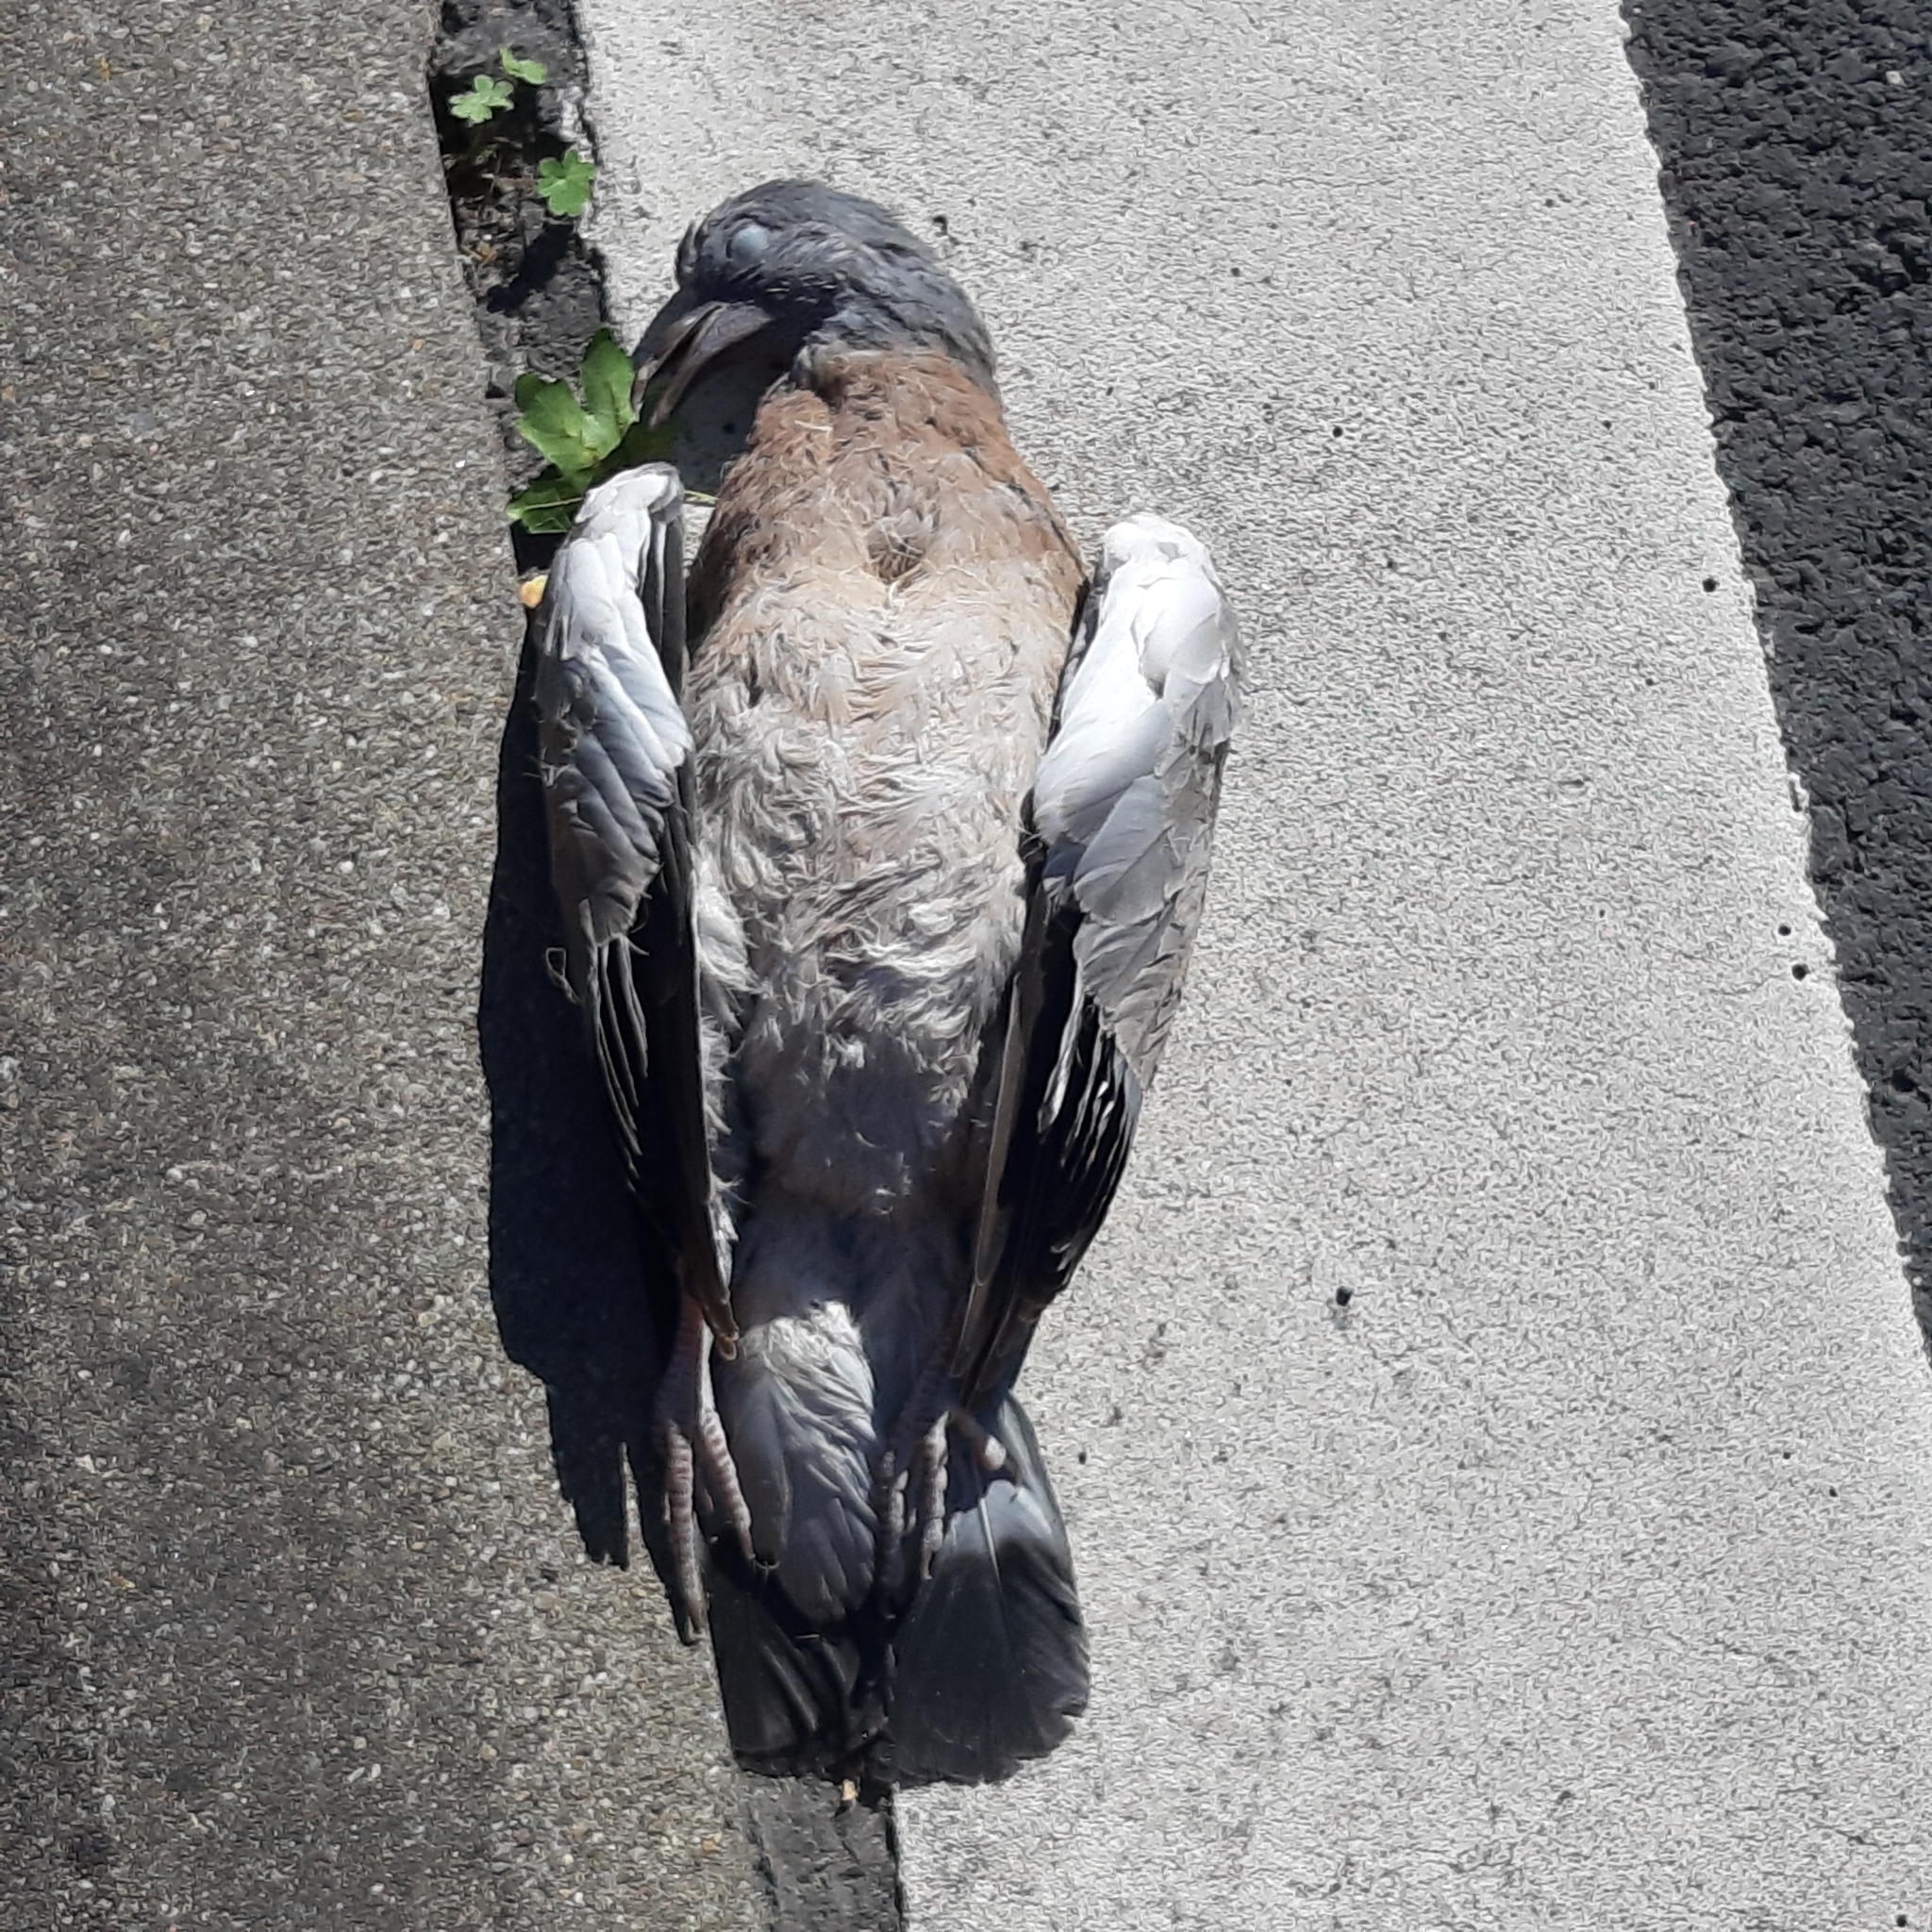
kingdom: Animalia
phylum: Chordata
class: Aves
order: Columbiformes
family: Columbidae
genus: Columba
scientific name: Columba palumbus
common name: Common wood pigeon
